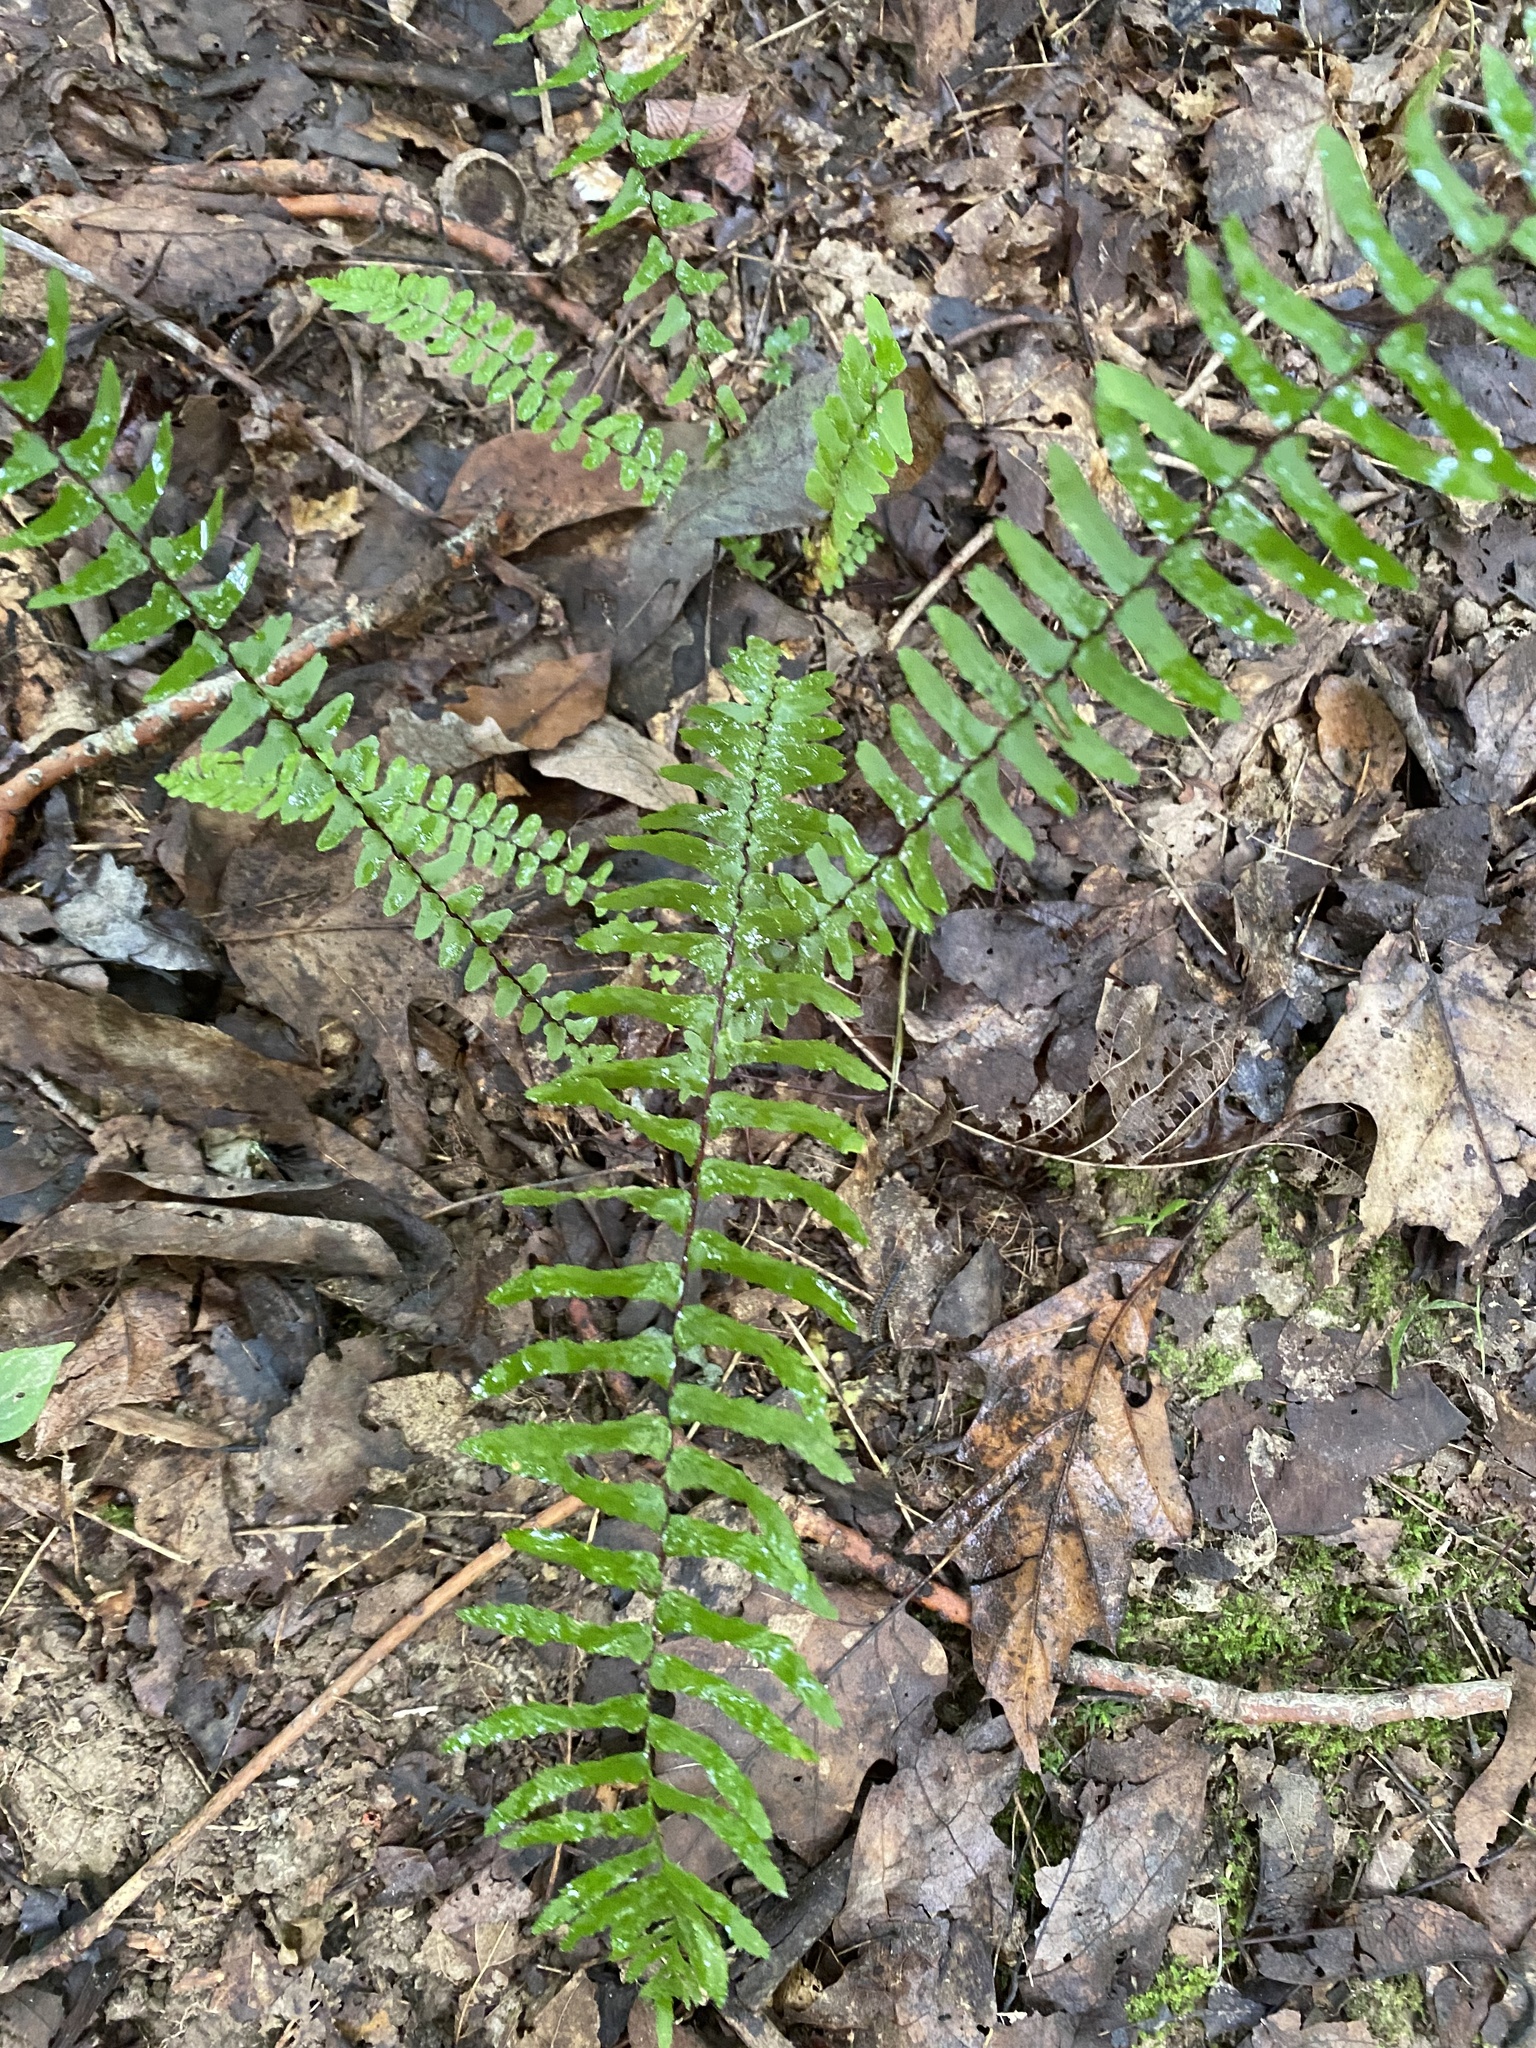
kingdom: Plantae
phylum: Tracheophyta
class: Polypodiopsida
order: Polypodiales
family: Aspleniaceae
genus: Asplenium
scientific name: Asplenium platyneuron
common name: Ebony spleenwort
